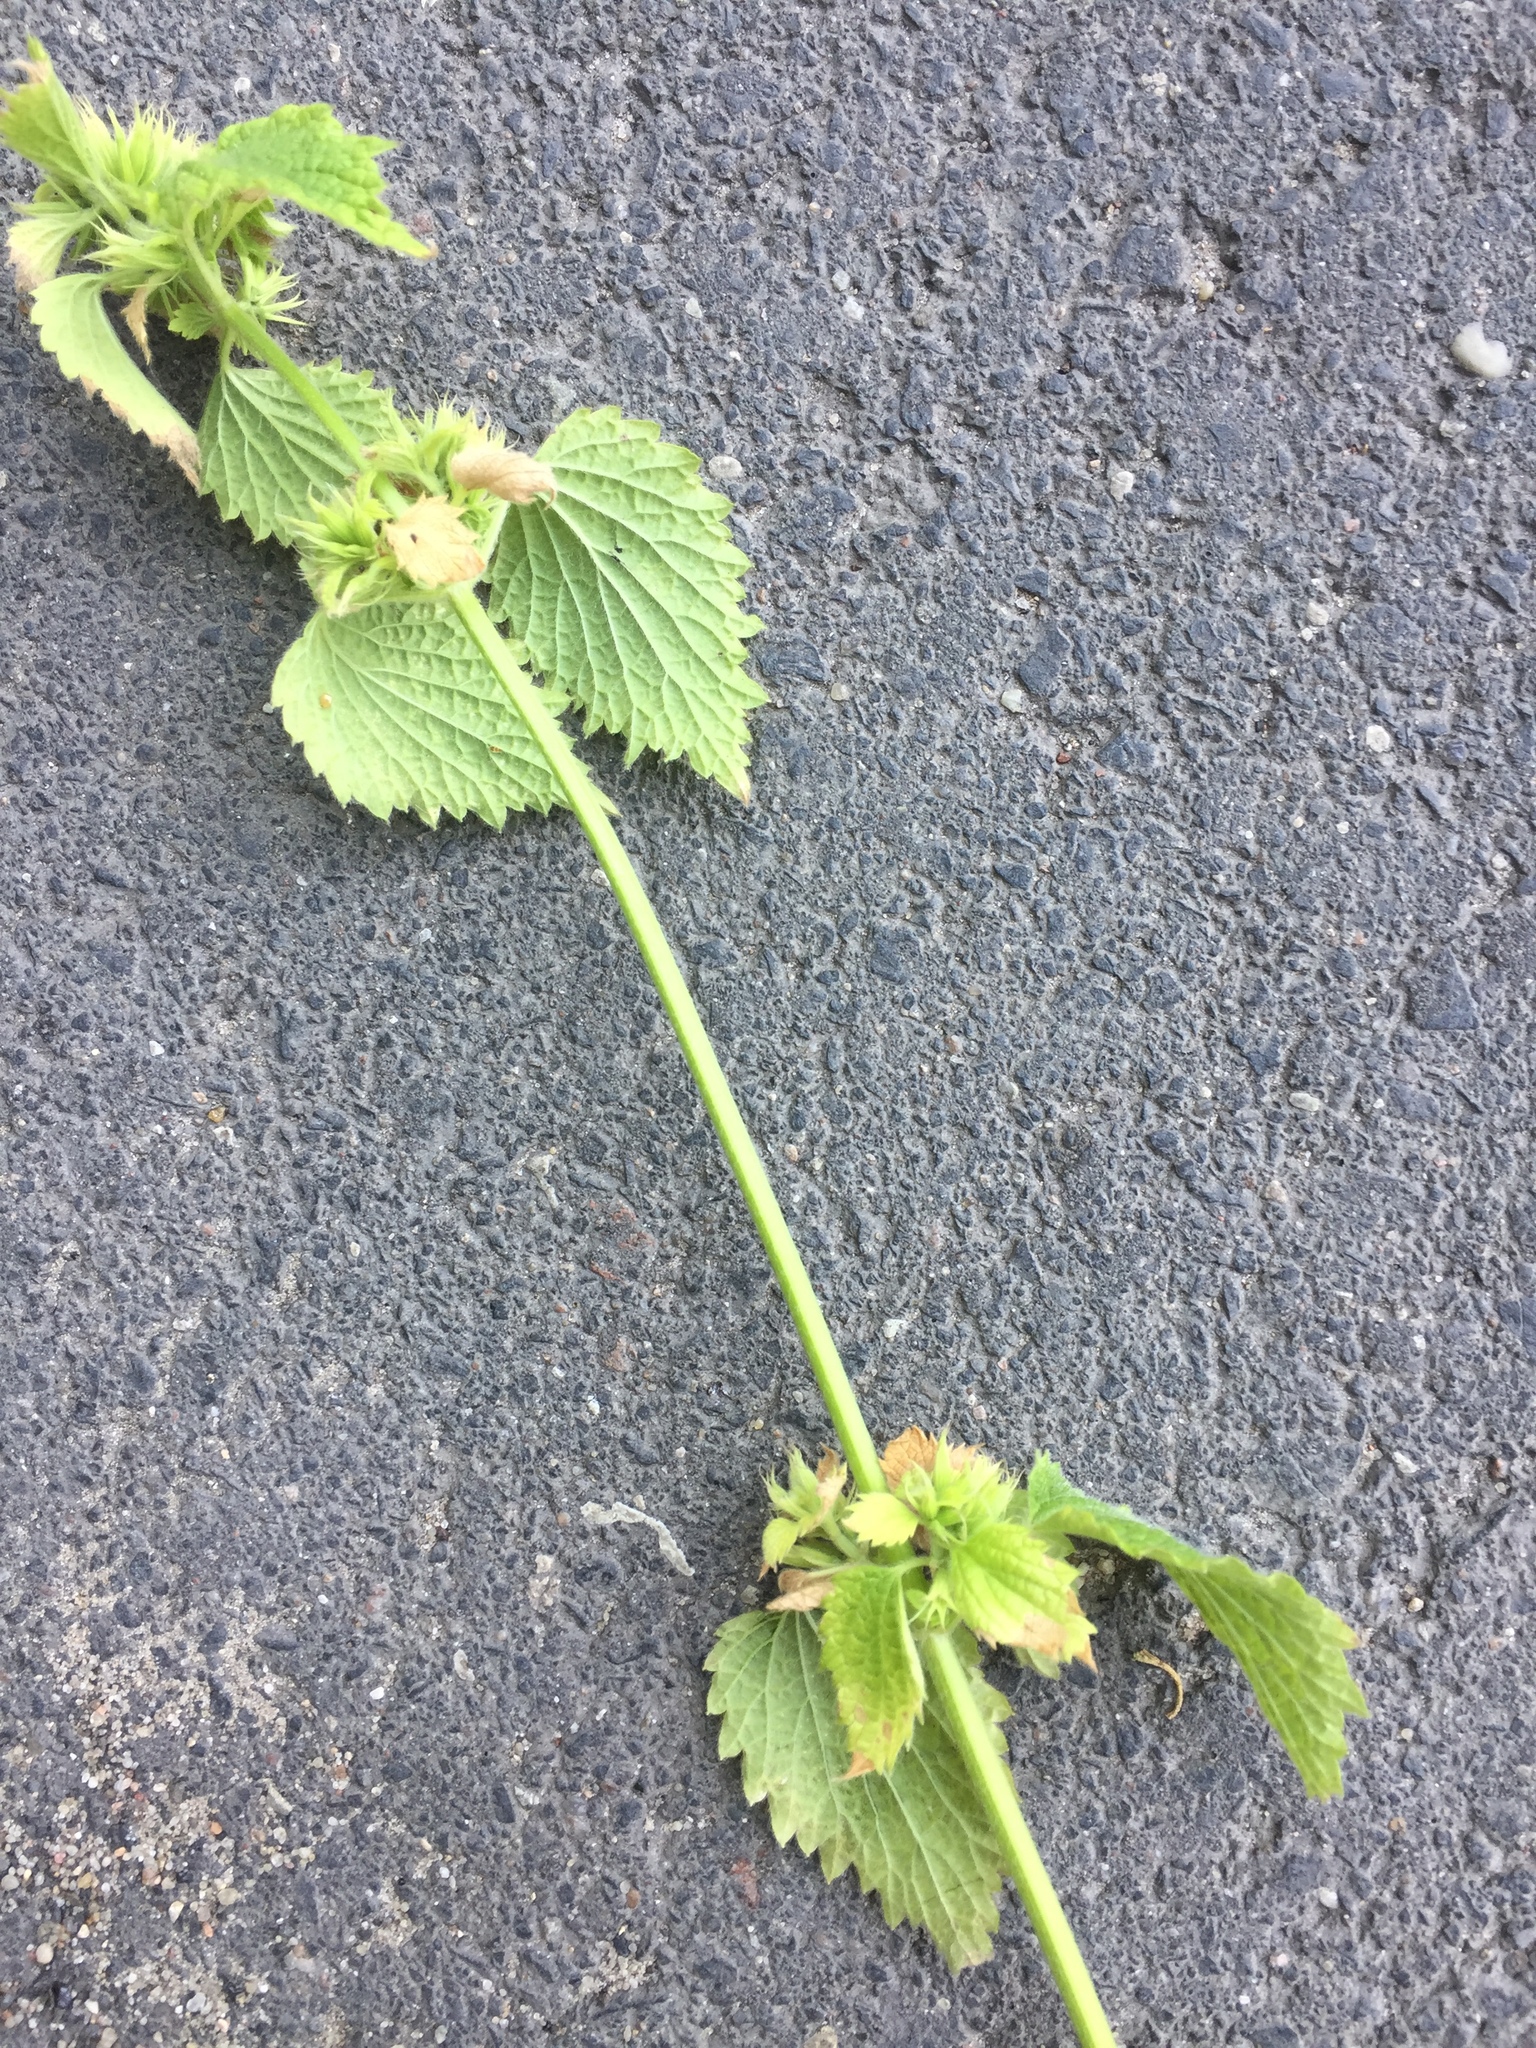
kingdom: Plantae
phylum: Tracheophyta
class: Magnoliopsida
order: Lamiales
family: Lamiaceae
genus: Ballota
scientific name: Ballota nigra
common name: Black horehound
